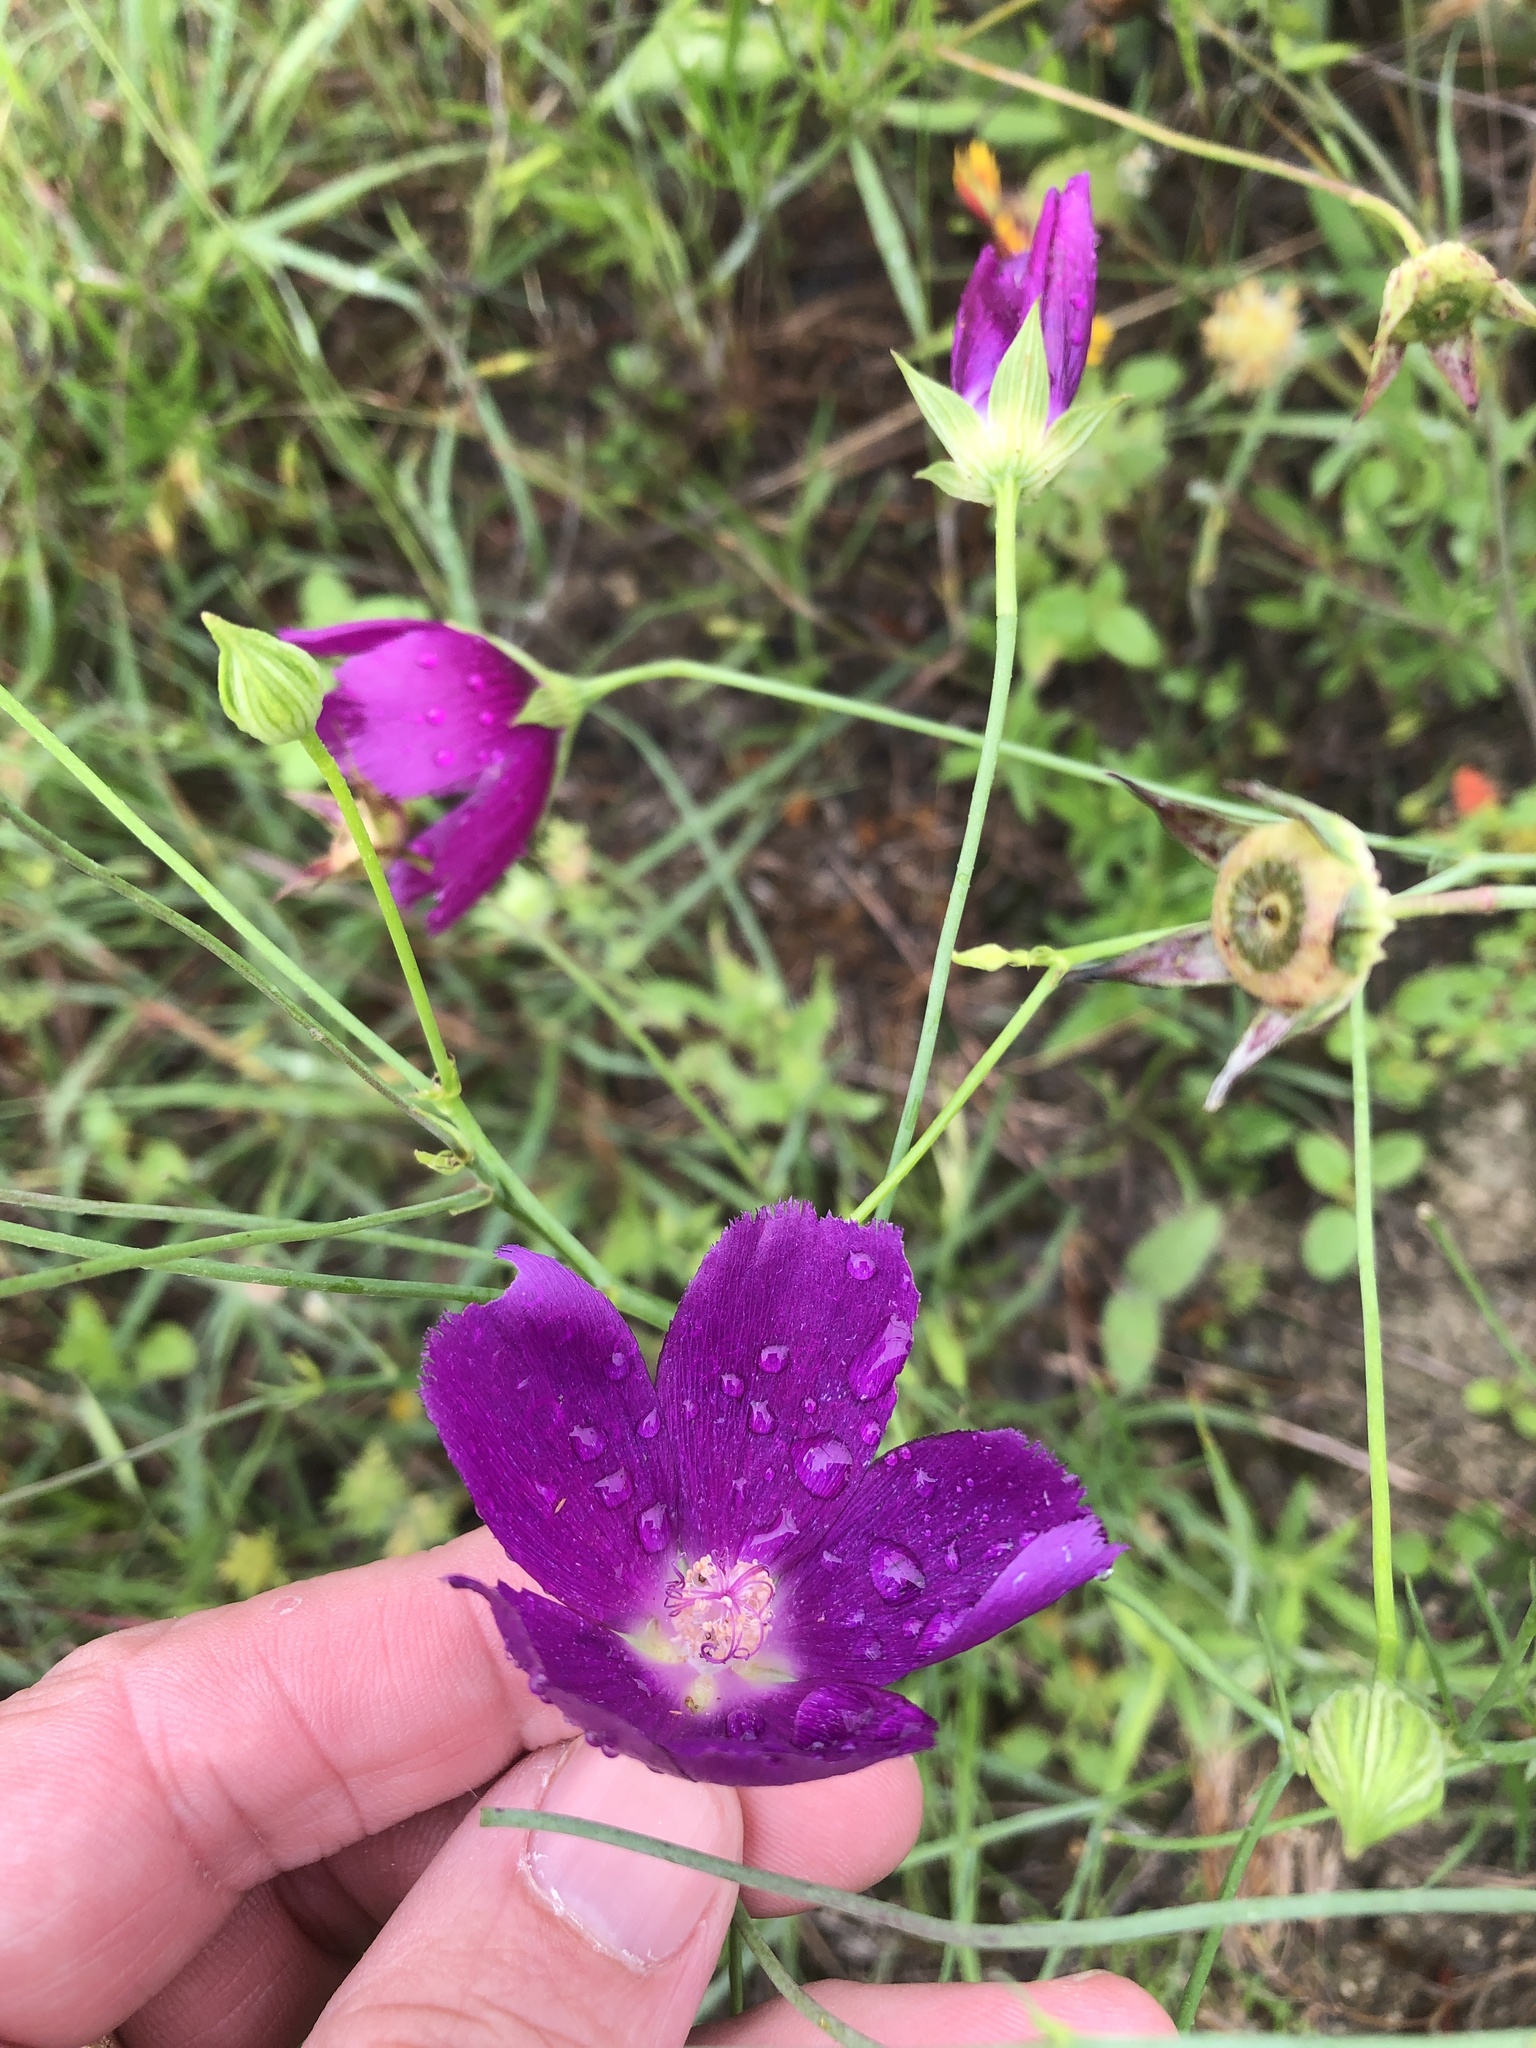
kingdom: Plantae
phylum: Tracheophyta
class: Magnoliopsida
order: Malvales
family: Malvaceae
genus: Callirhoe
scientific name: Callirhoe pedata
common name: Finger poppy-mallow
